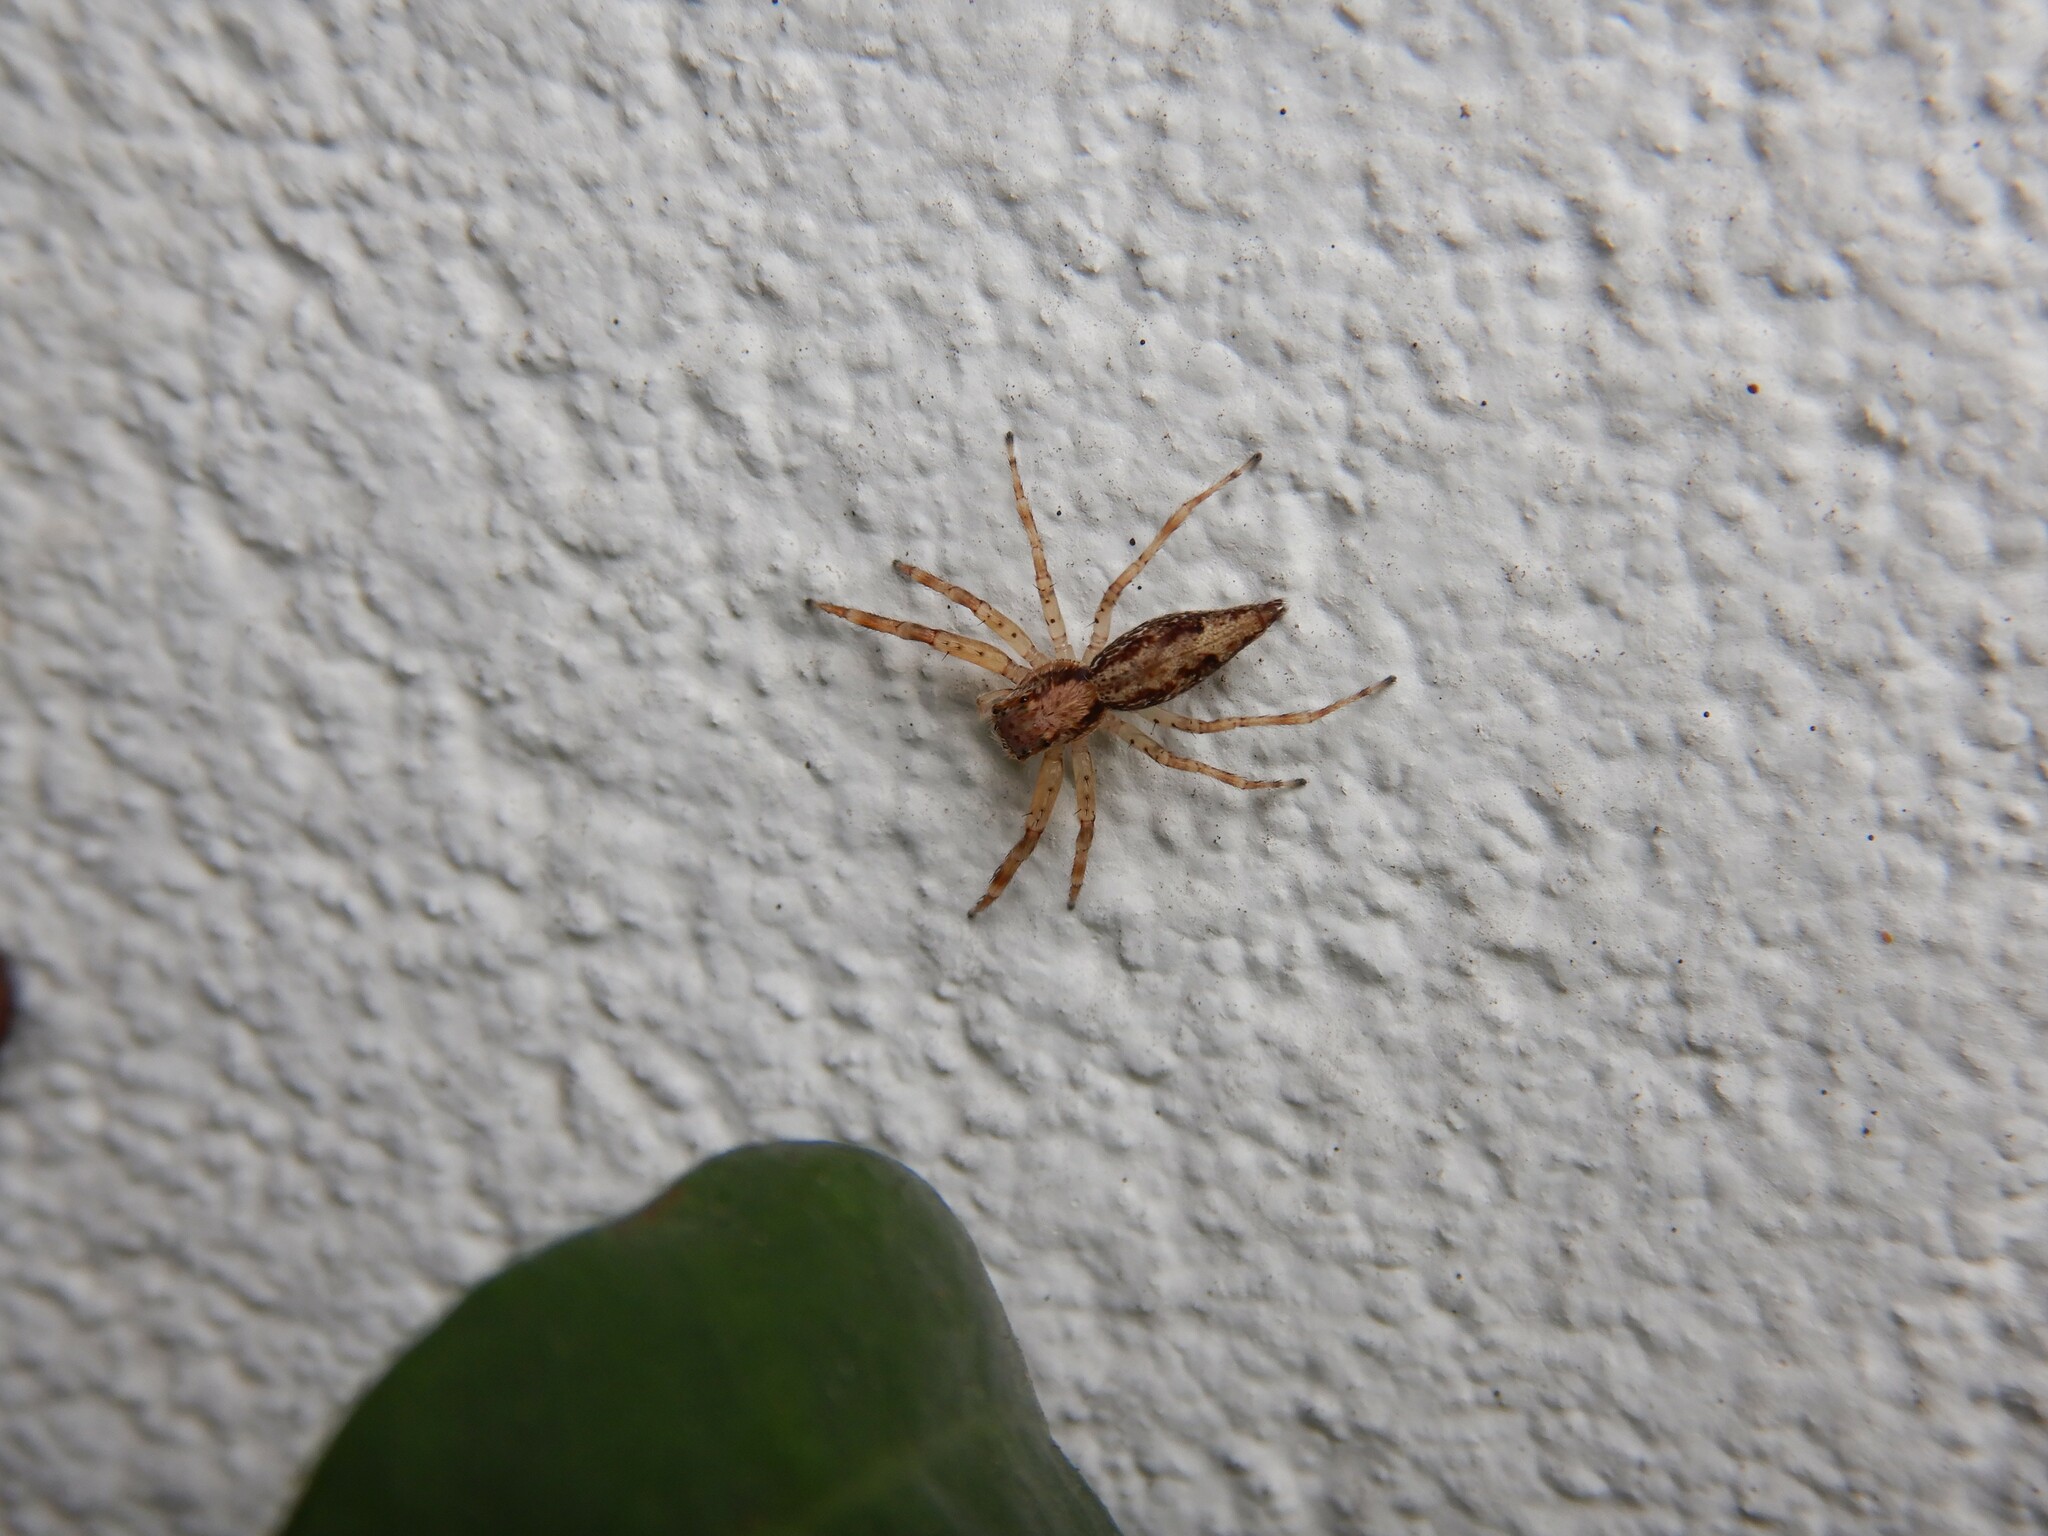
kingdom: Animalia
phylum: Arthropoda
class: Arachnida
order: Araneae
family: Salticidae
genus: Helpis
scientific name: Helpis minitabunda
